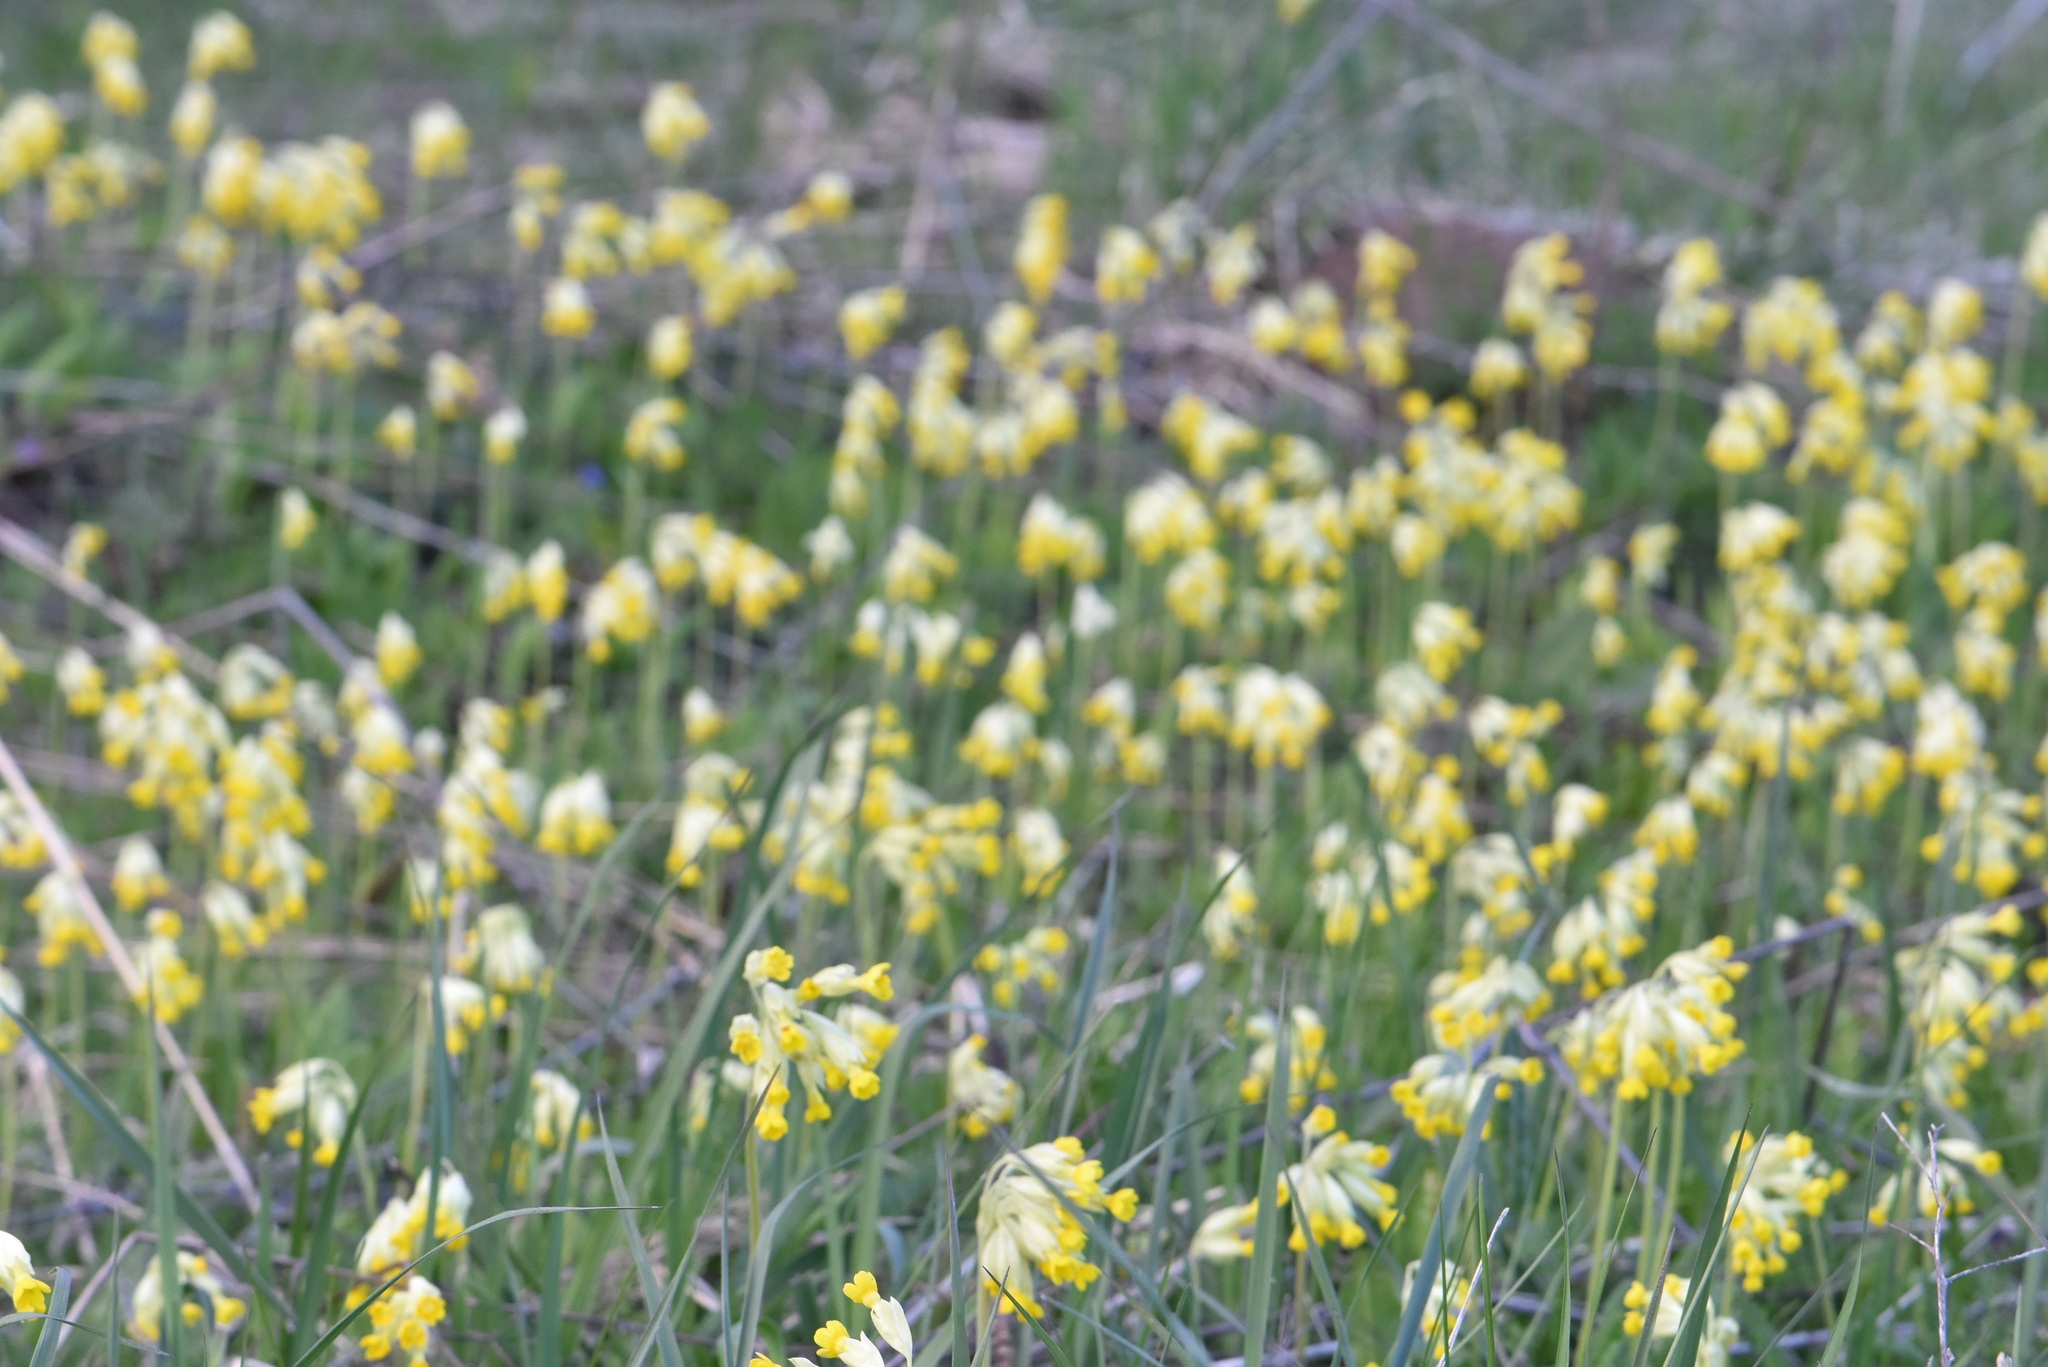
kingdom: Plantae
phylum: Tracheophyta
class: Magnoliopsida
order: Ericales
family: Primulaceae
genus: Primula
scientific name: Primula veris
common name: Cowslip
